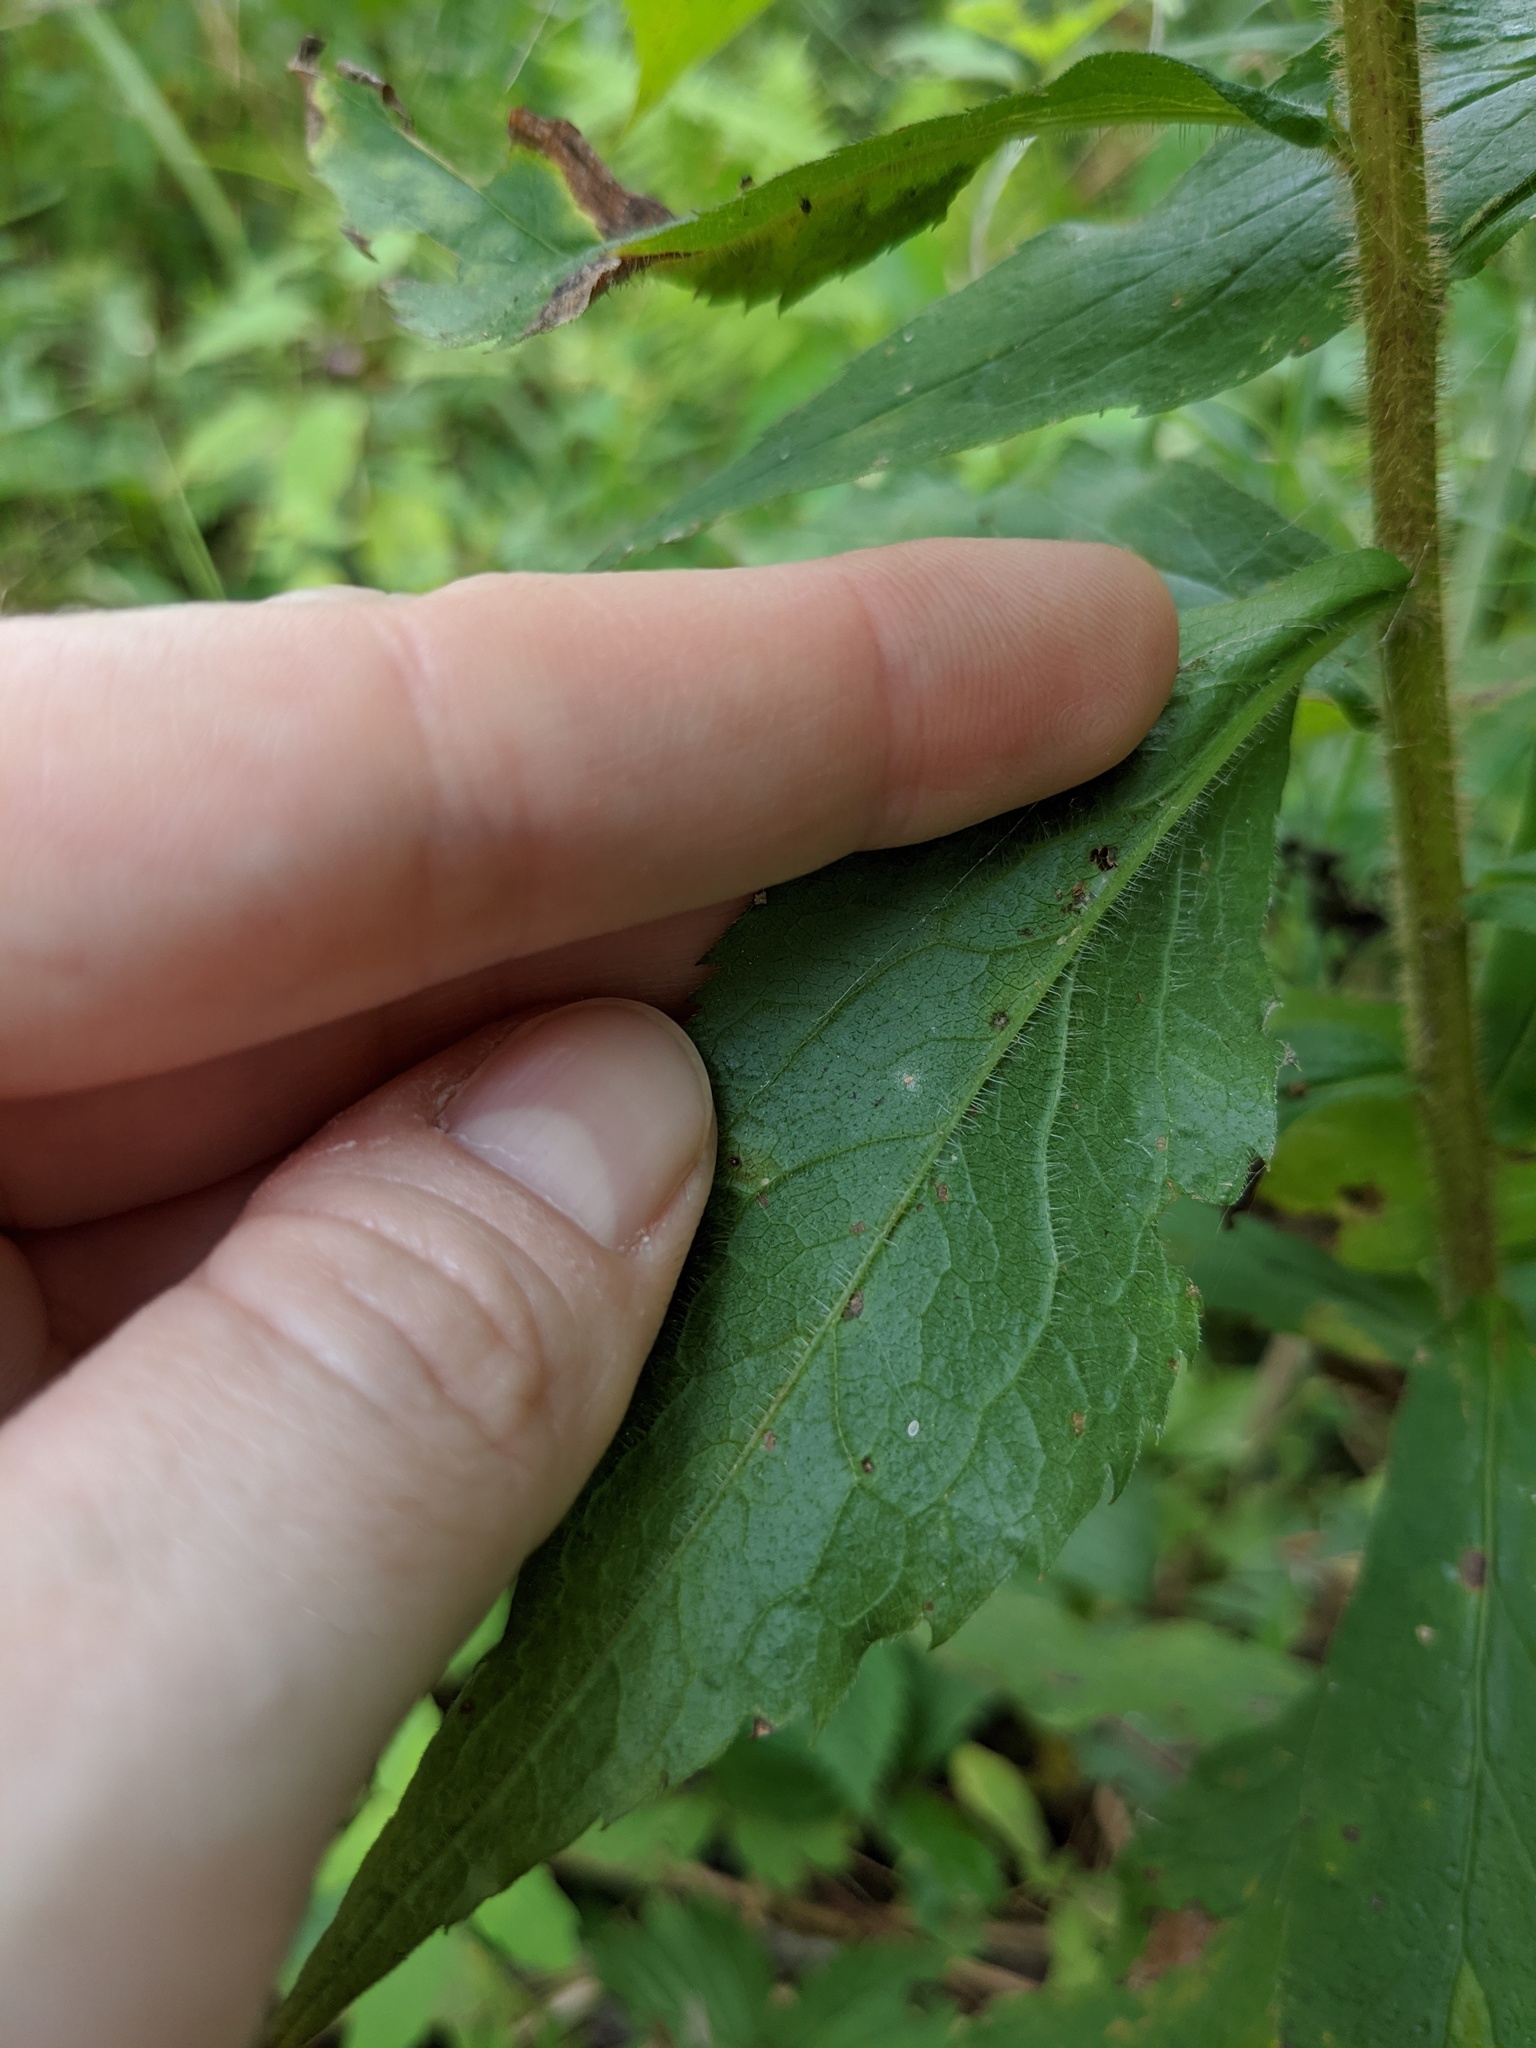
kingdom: Plantae
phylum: Tracheophyta
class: Magnoliopsida
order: Asterales
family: Asteraceae
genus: Solidago
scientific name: Solidago rugosa
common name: Rough-stemmed goldenrod
